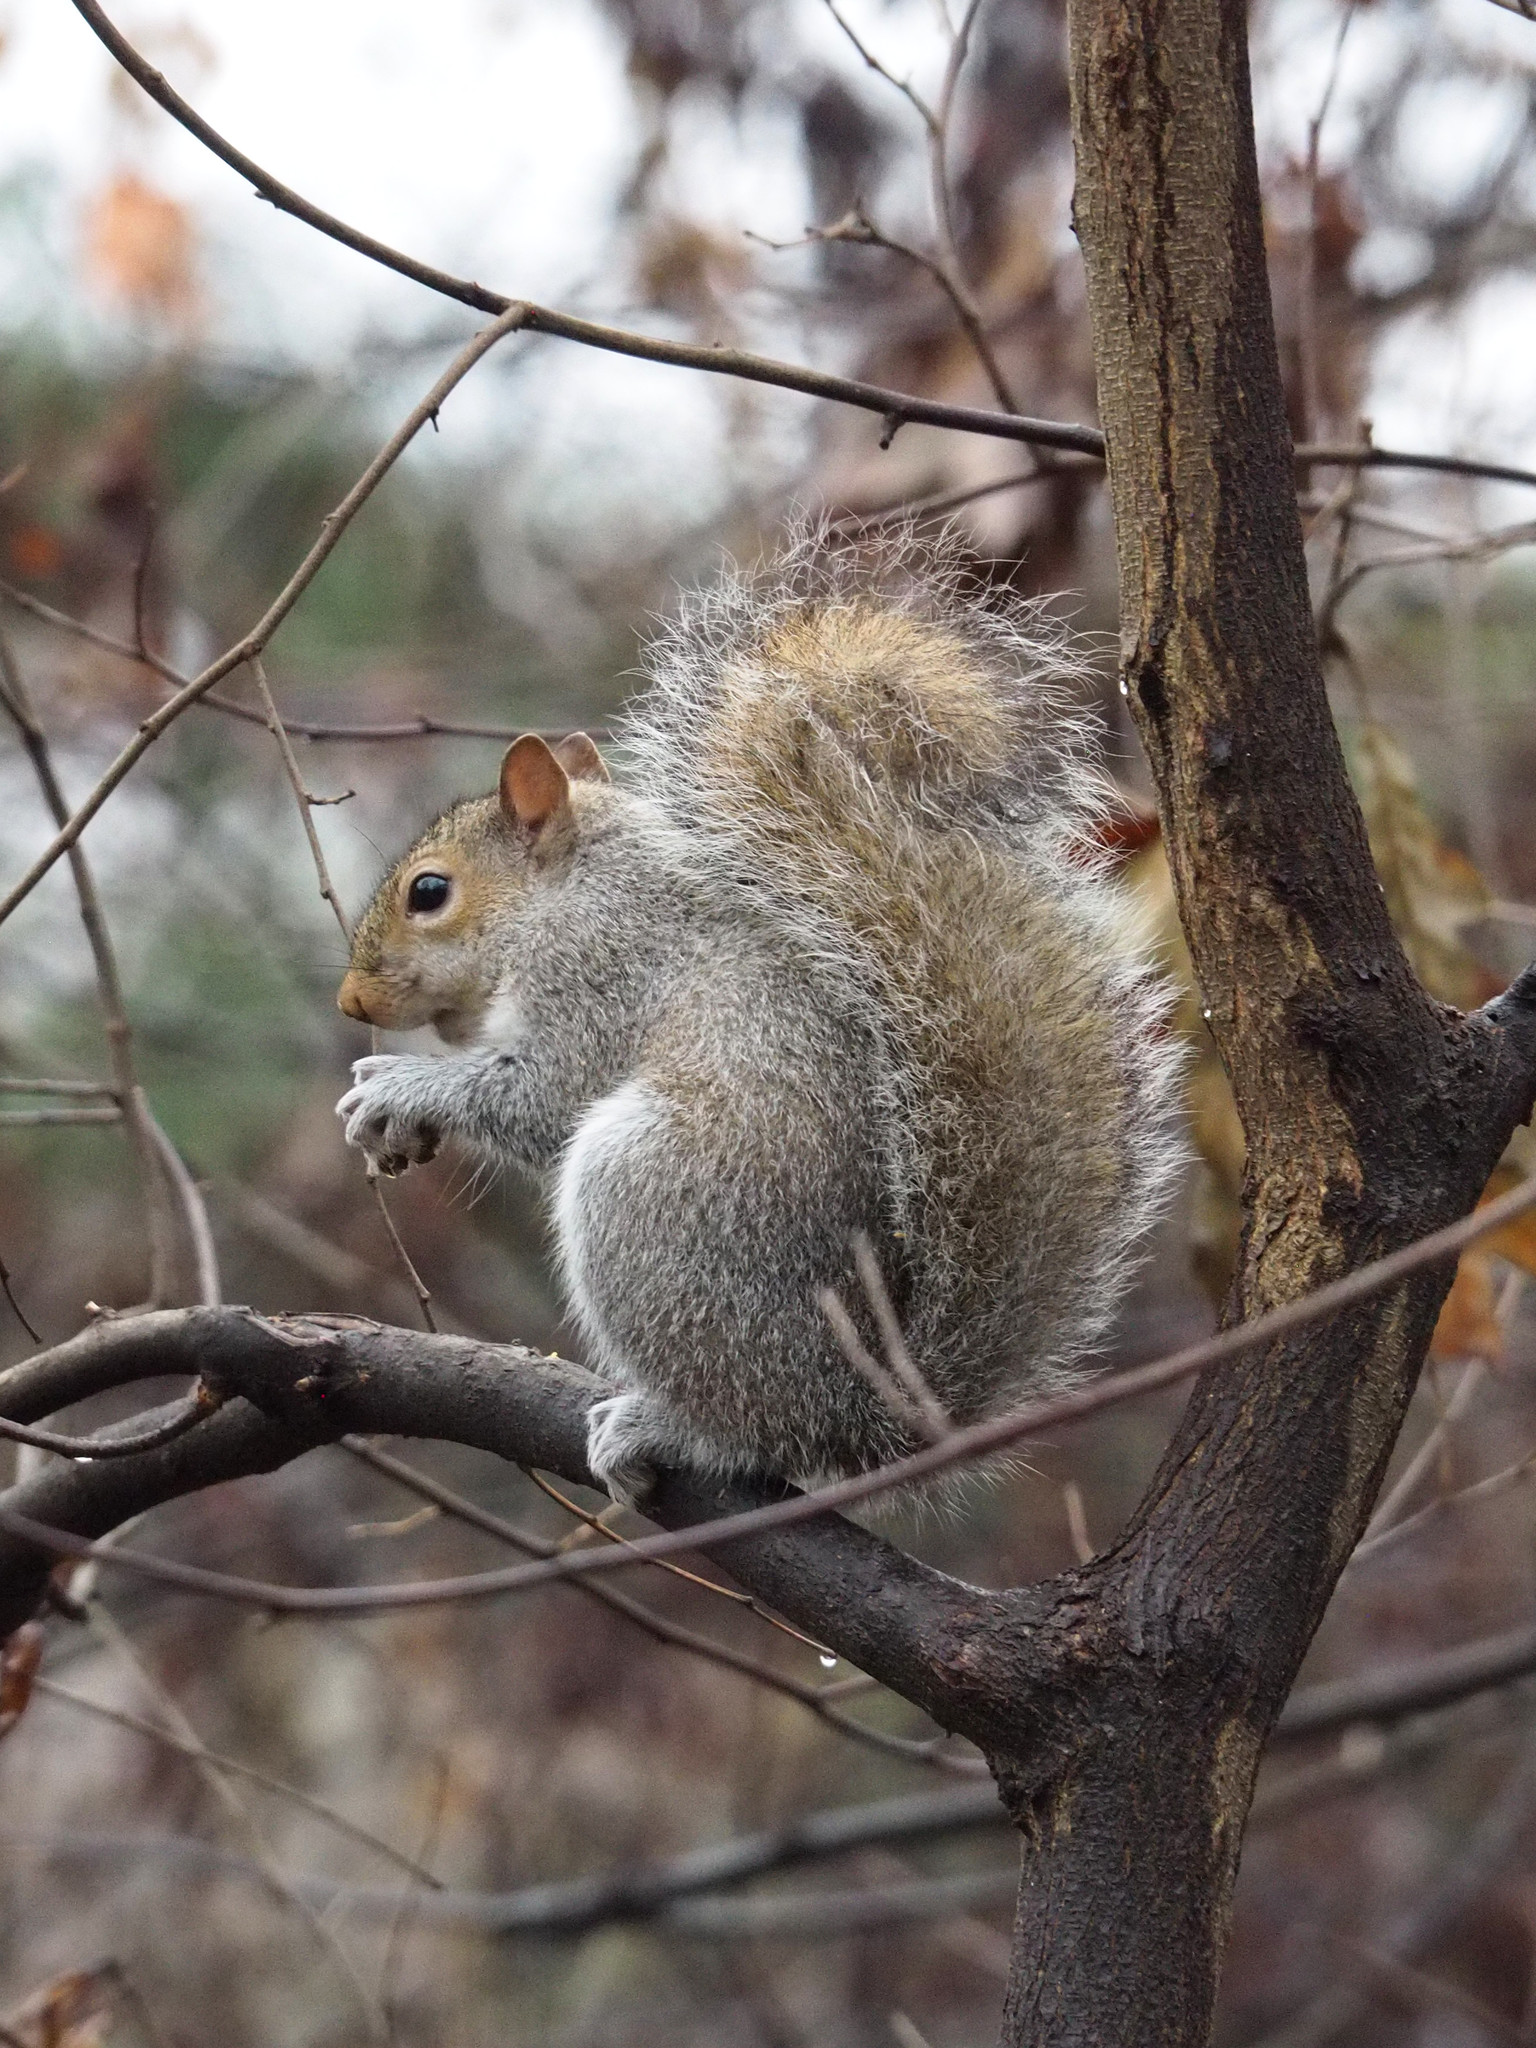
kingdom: Animalia
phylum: Chordata
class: Mammalia
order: Rodentia
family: Sciuridae
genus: Sciurus
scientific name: Sciurus carolinensis
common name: Eastern gray squirrel
